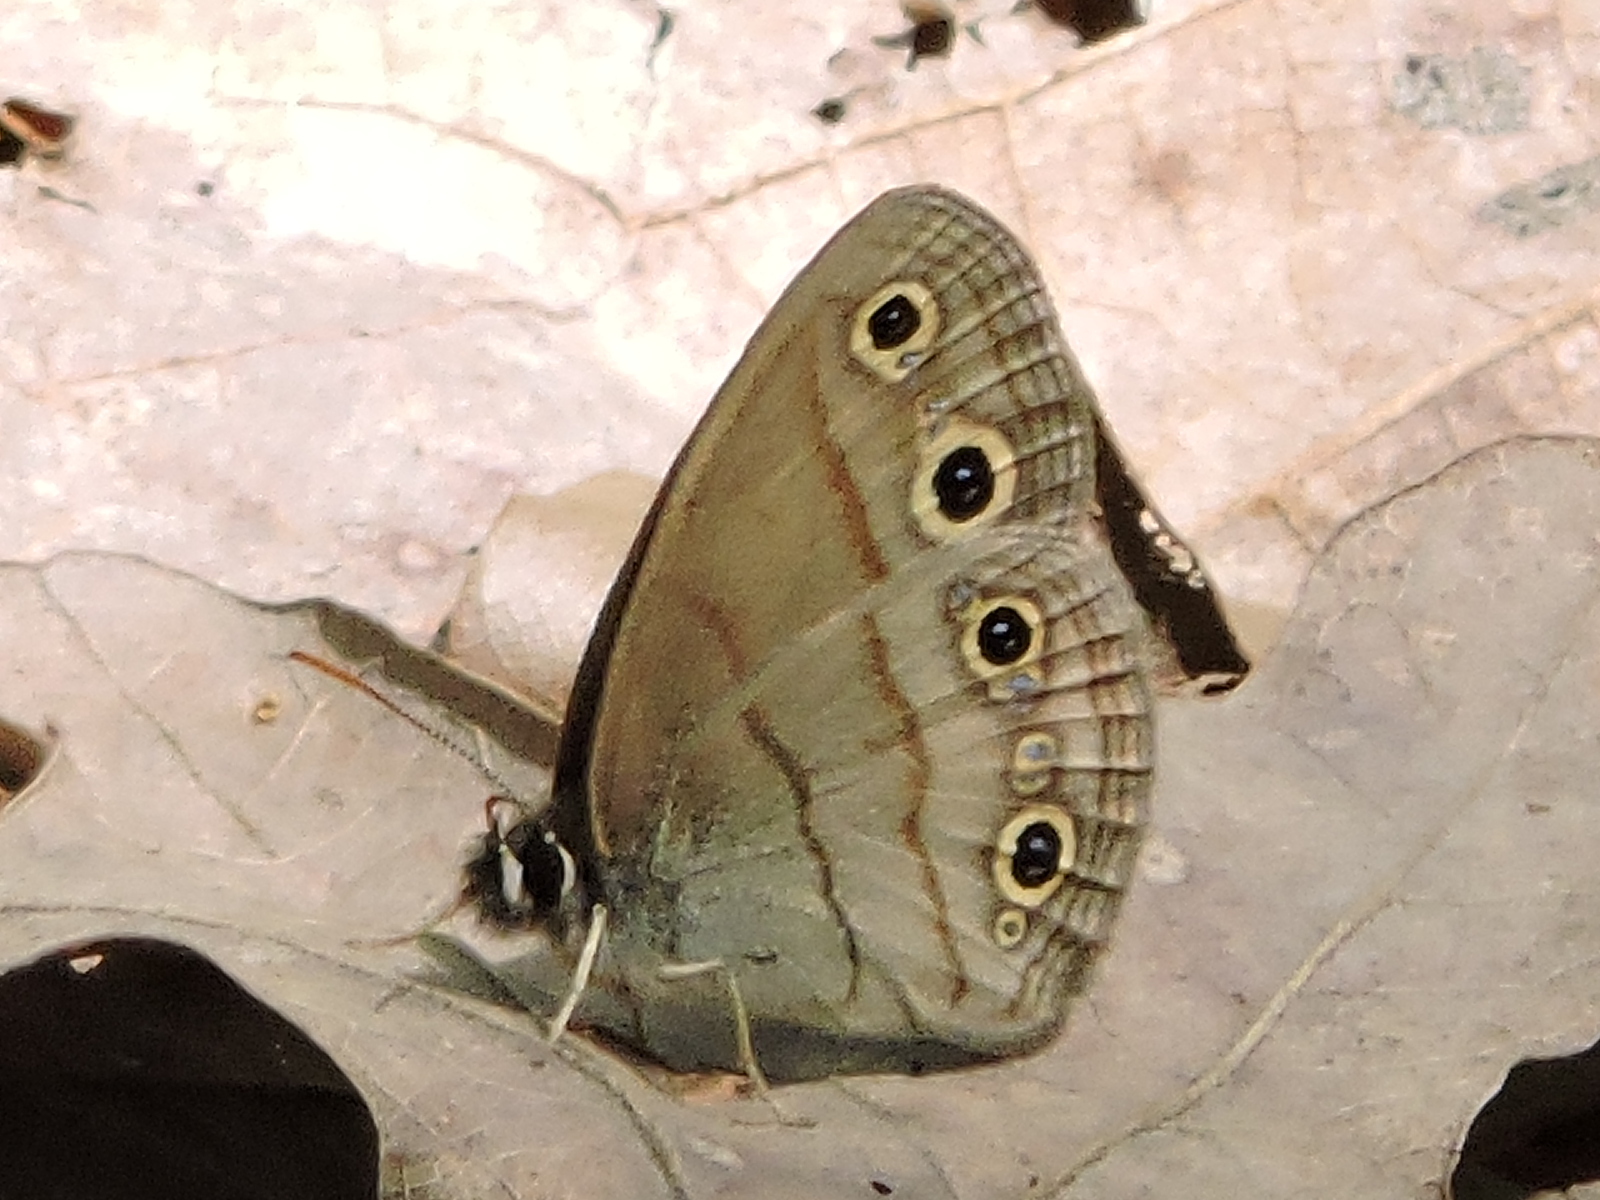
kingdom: Animalia
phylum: Arthropoda
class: Insecta
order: Lepidoptera
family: Nymphalidae
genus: Euptychia
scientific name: Euptychia cymela
